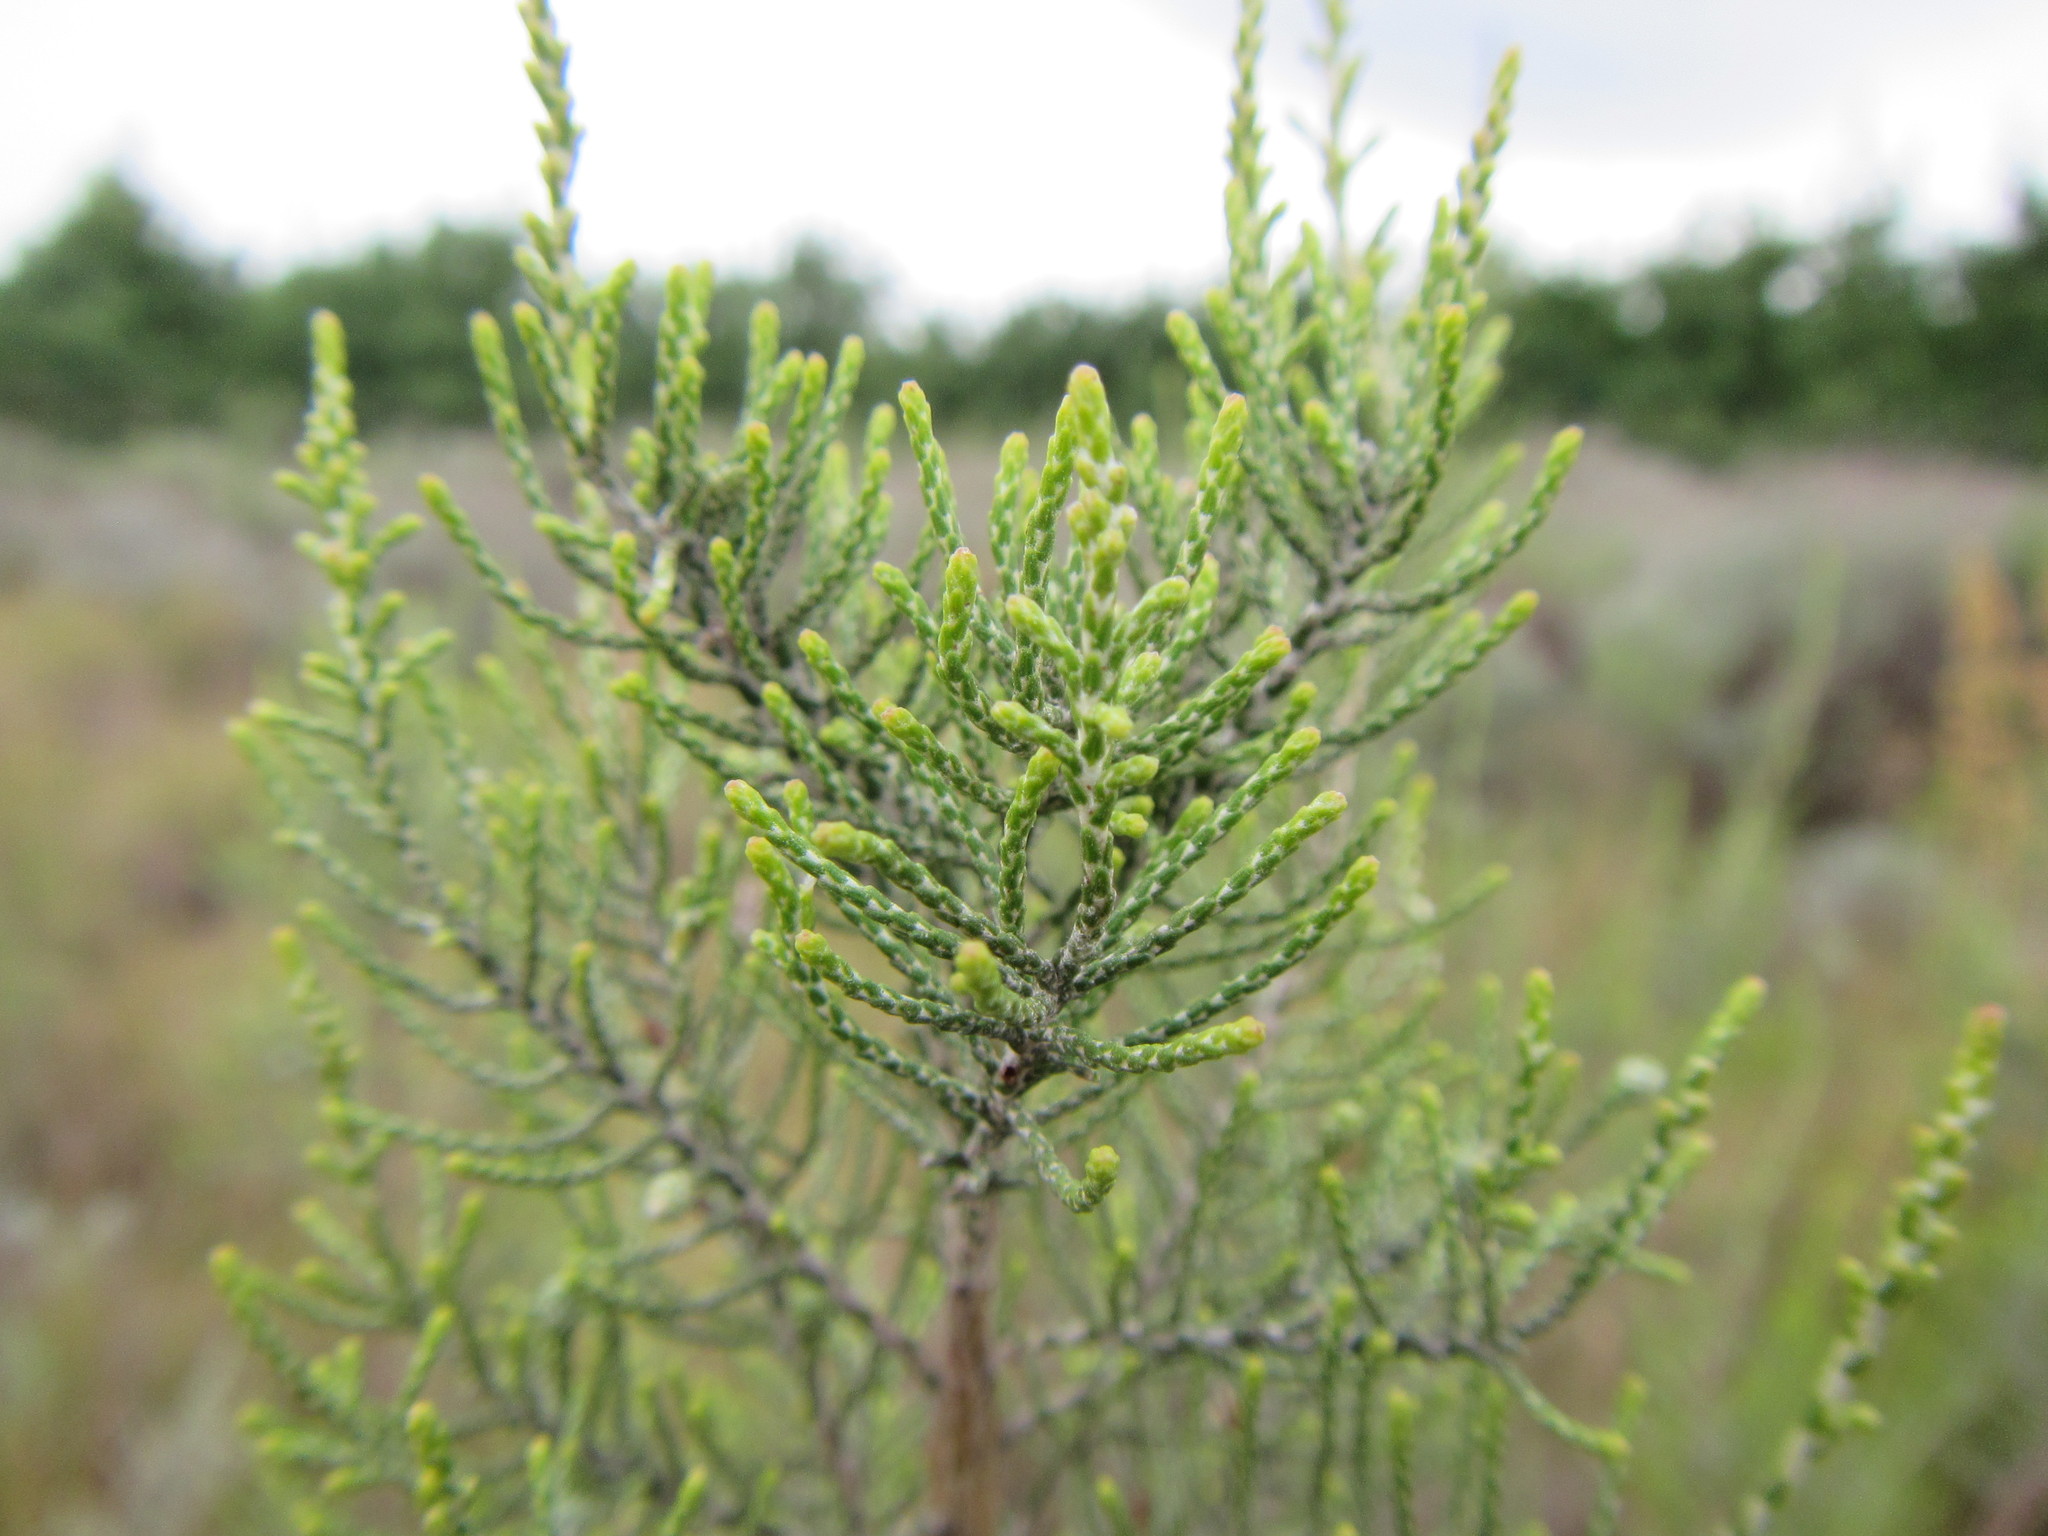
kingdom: Plantae
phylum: Tracheophyta
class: Magnoliopsida
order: Asterales
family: Asteraceae
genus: Dicerothamnus
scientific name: Dicerothamnus rhinocerotis
